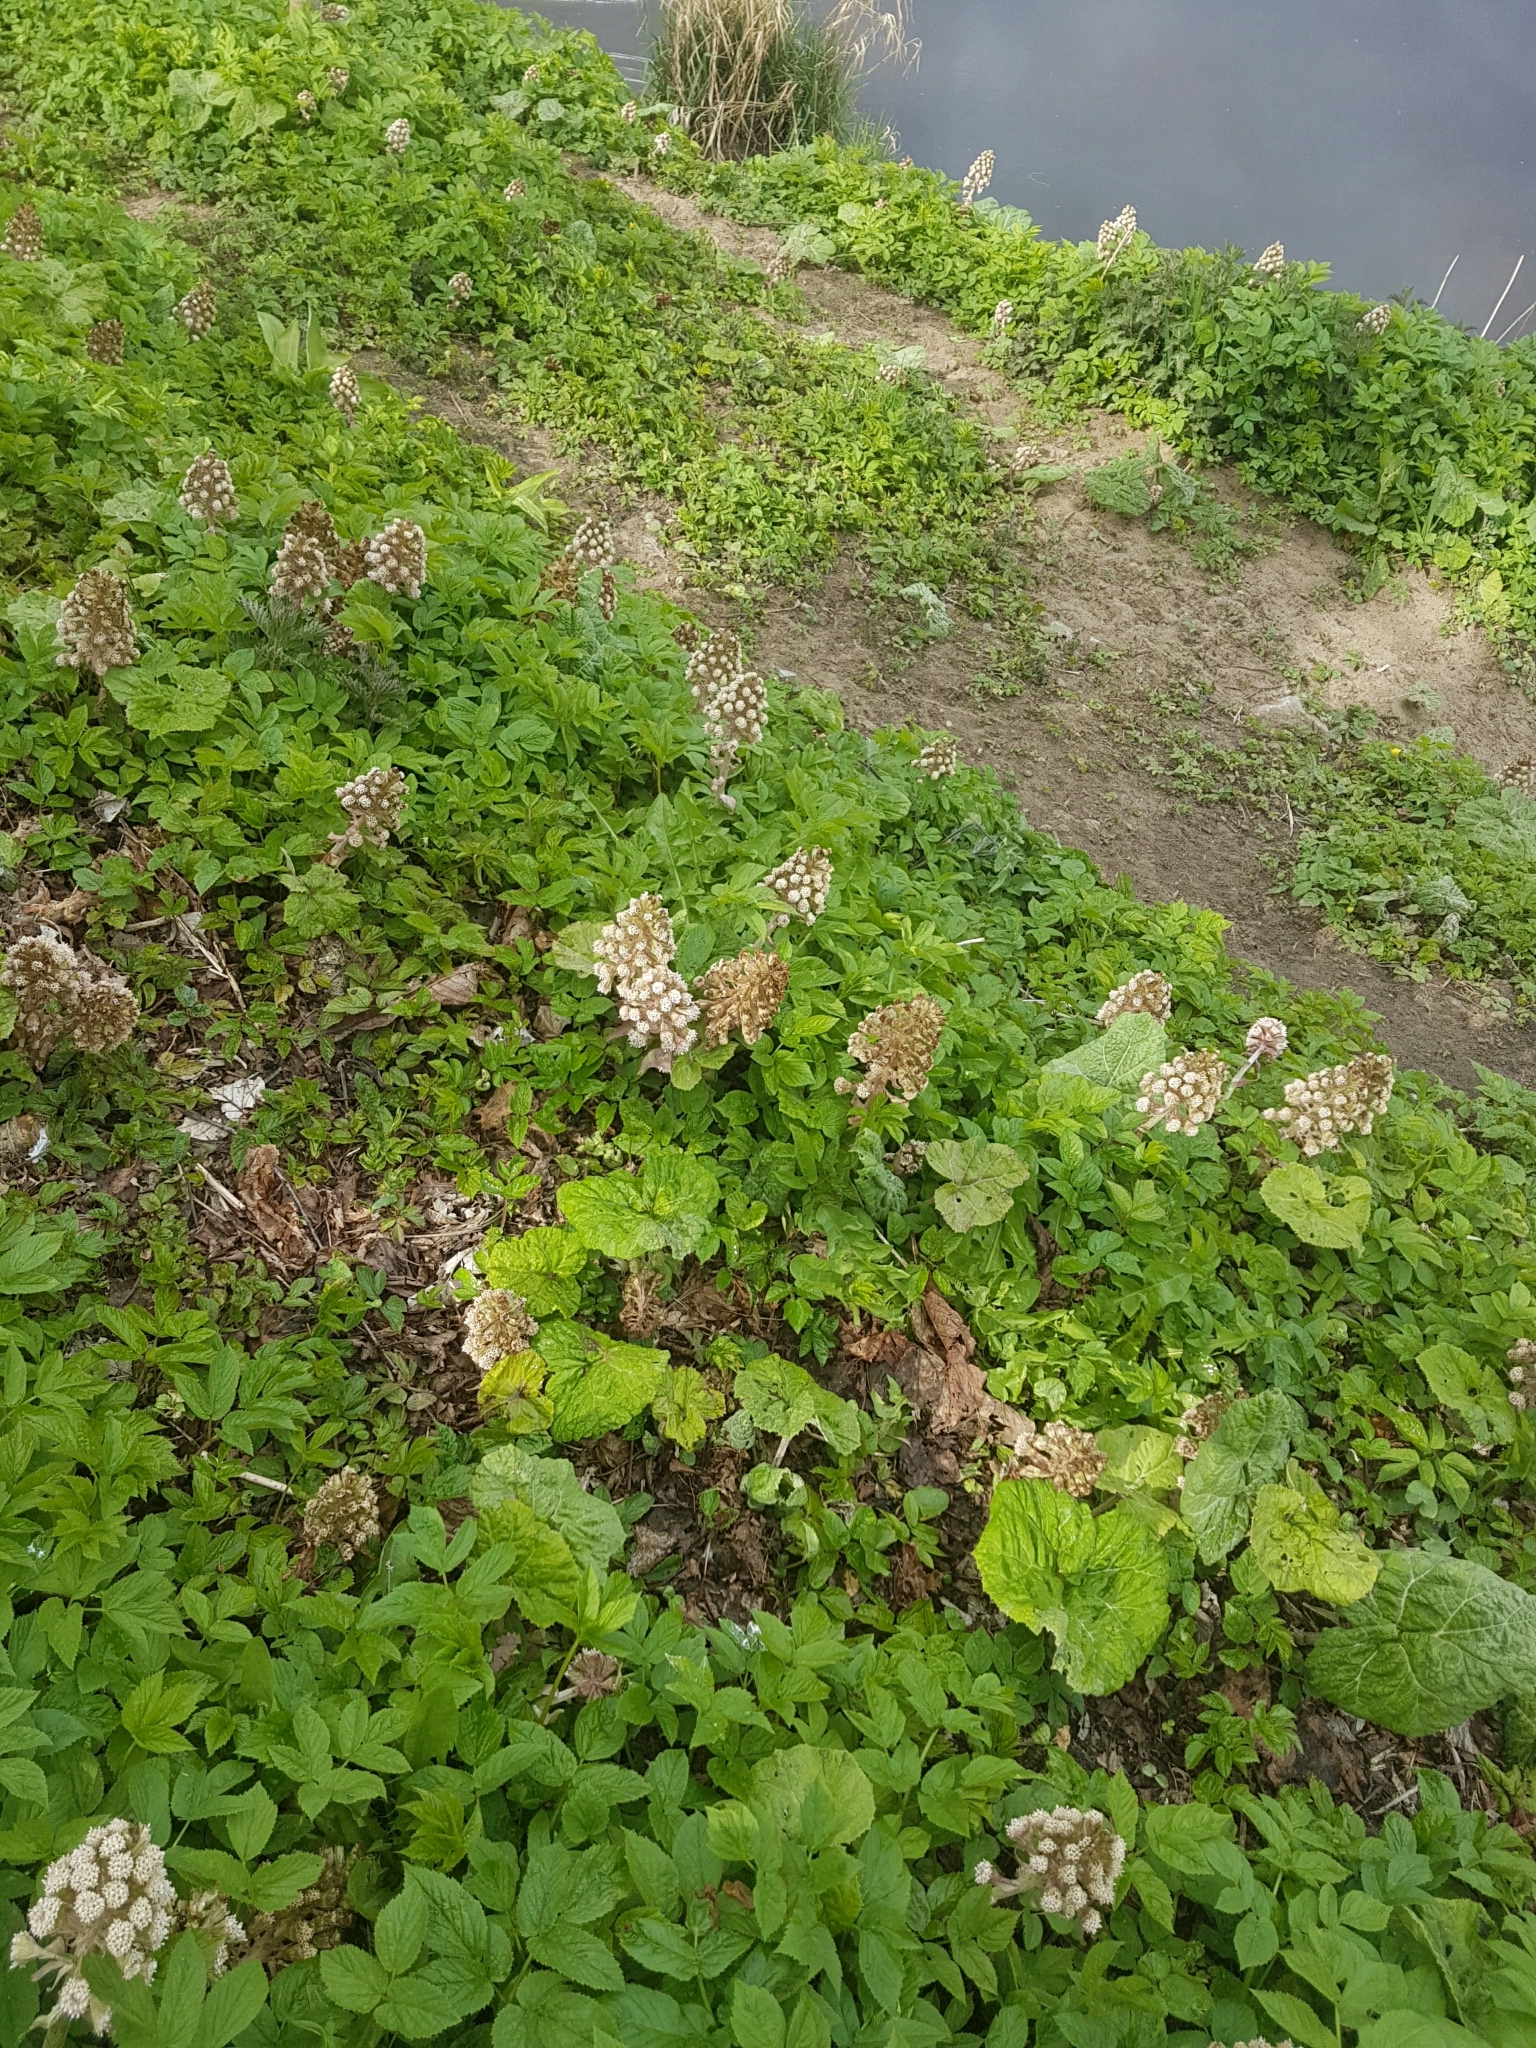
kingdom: Plantae
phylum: Tracheophyta
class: Magnoliopsida
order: Asterales
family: Asteraceae
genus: Petasites
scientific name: Petasites hybridus
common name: Butterbur
